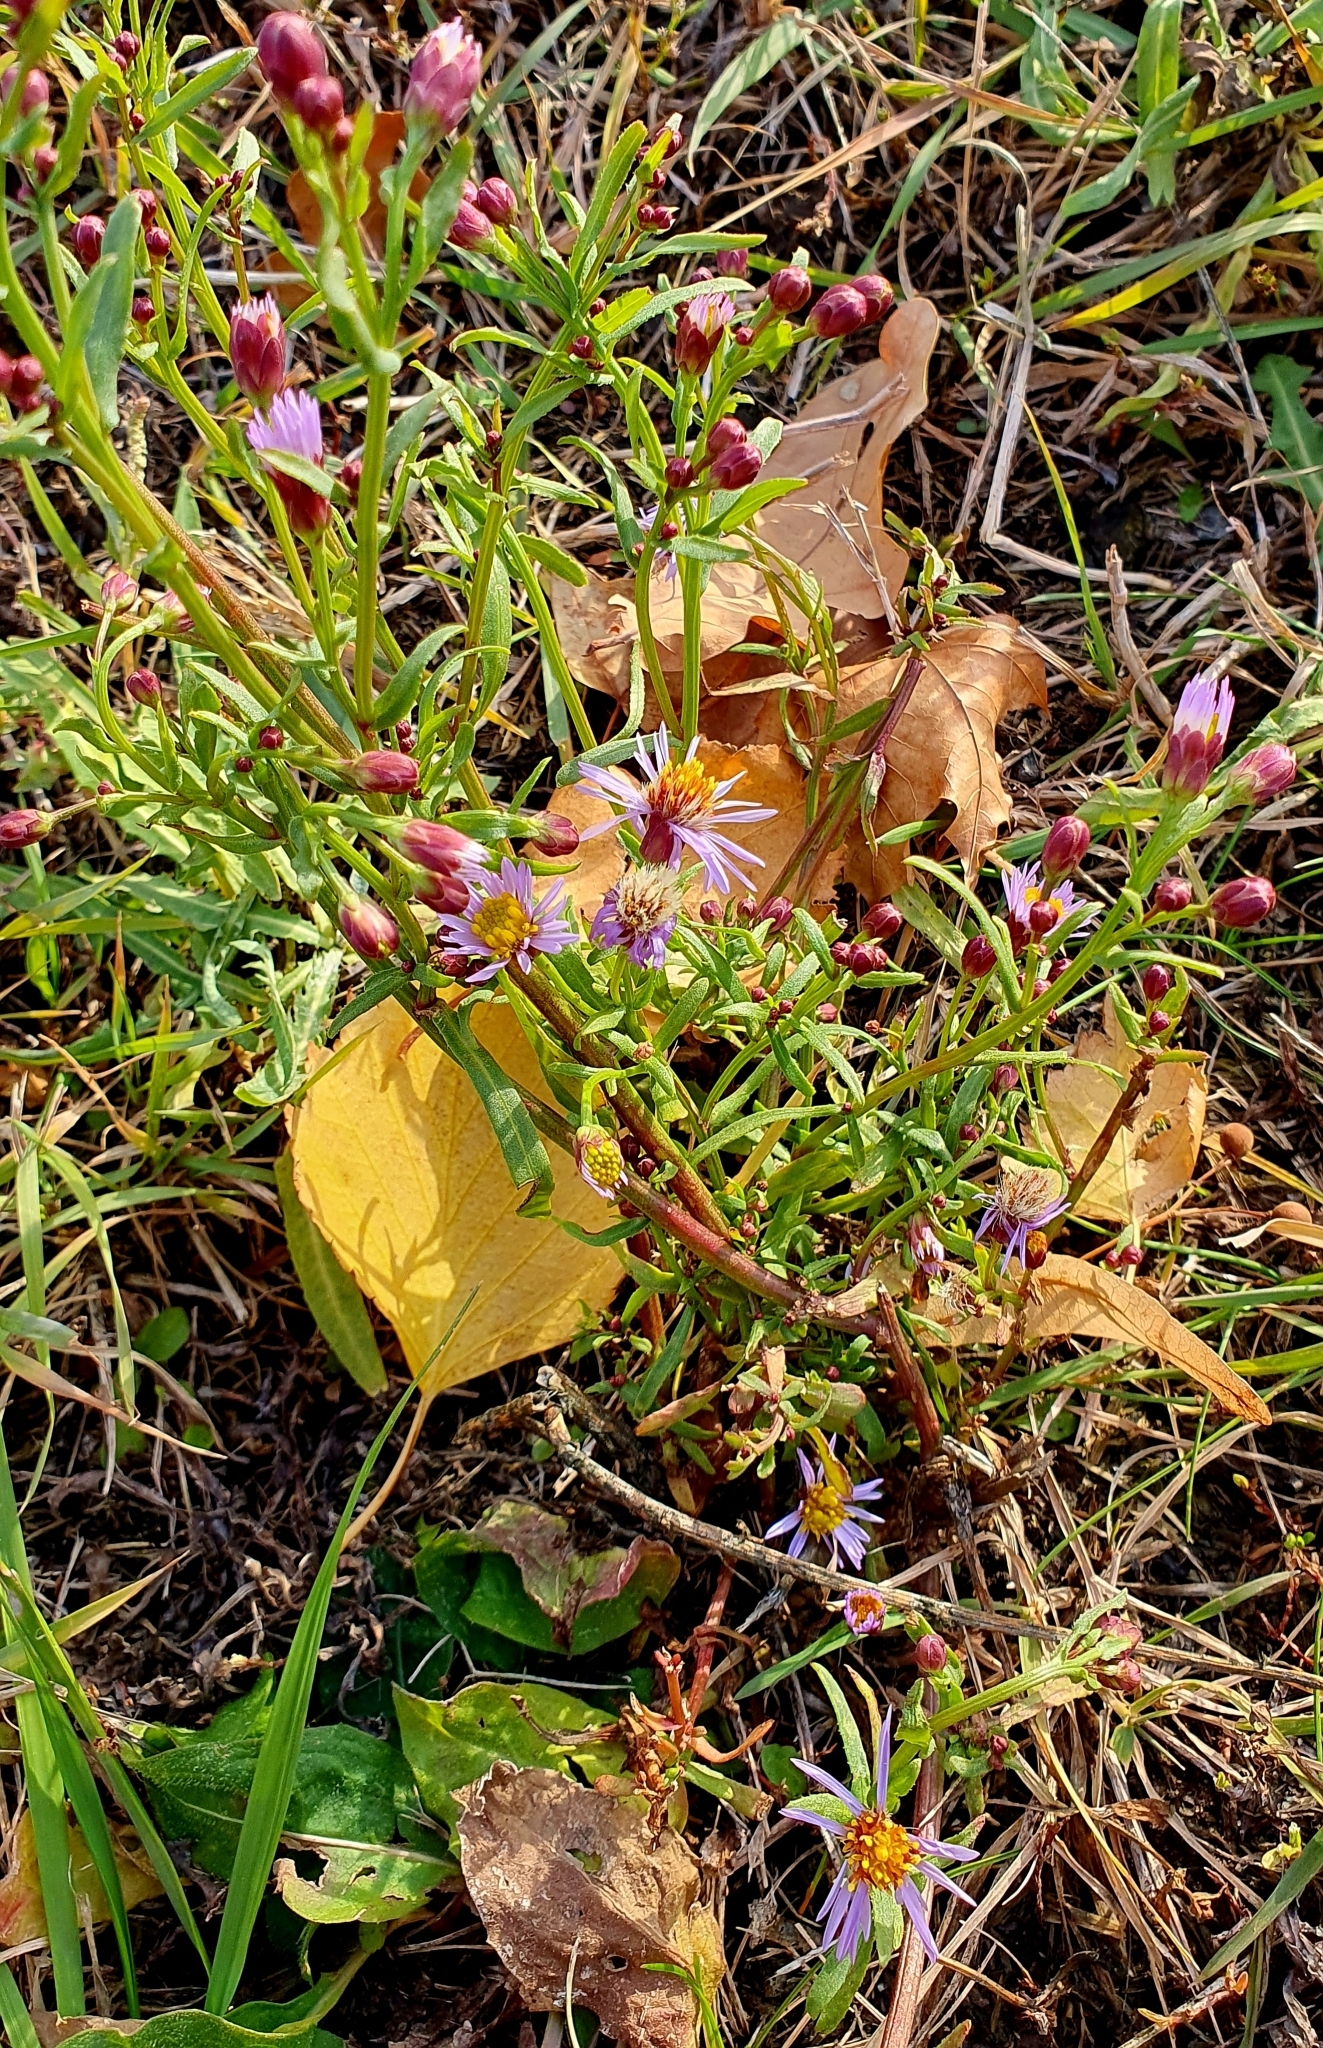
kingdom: Plantae
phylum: Tracheophyta
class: Magnoliopsida
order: Asterales
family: Asteraceae
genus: Tripolium
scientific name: Tripolium pannonicum
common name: Sea aster
